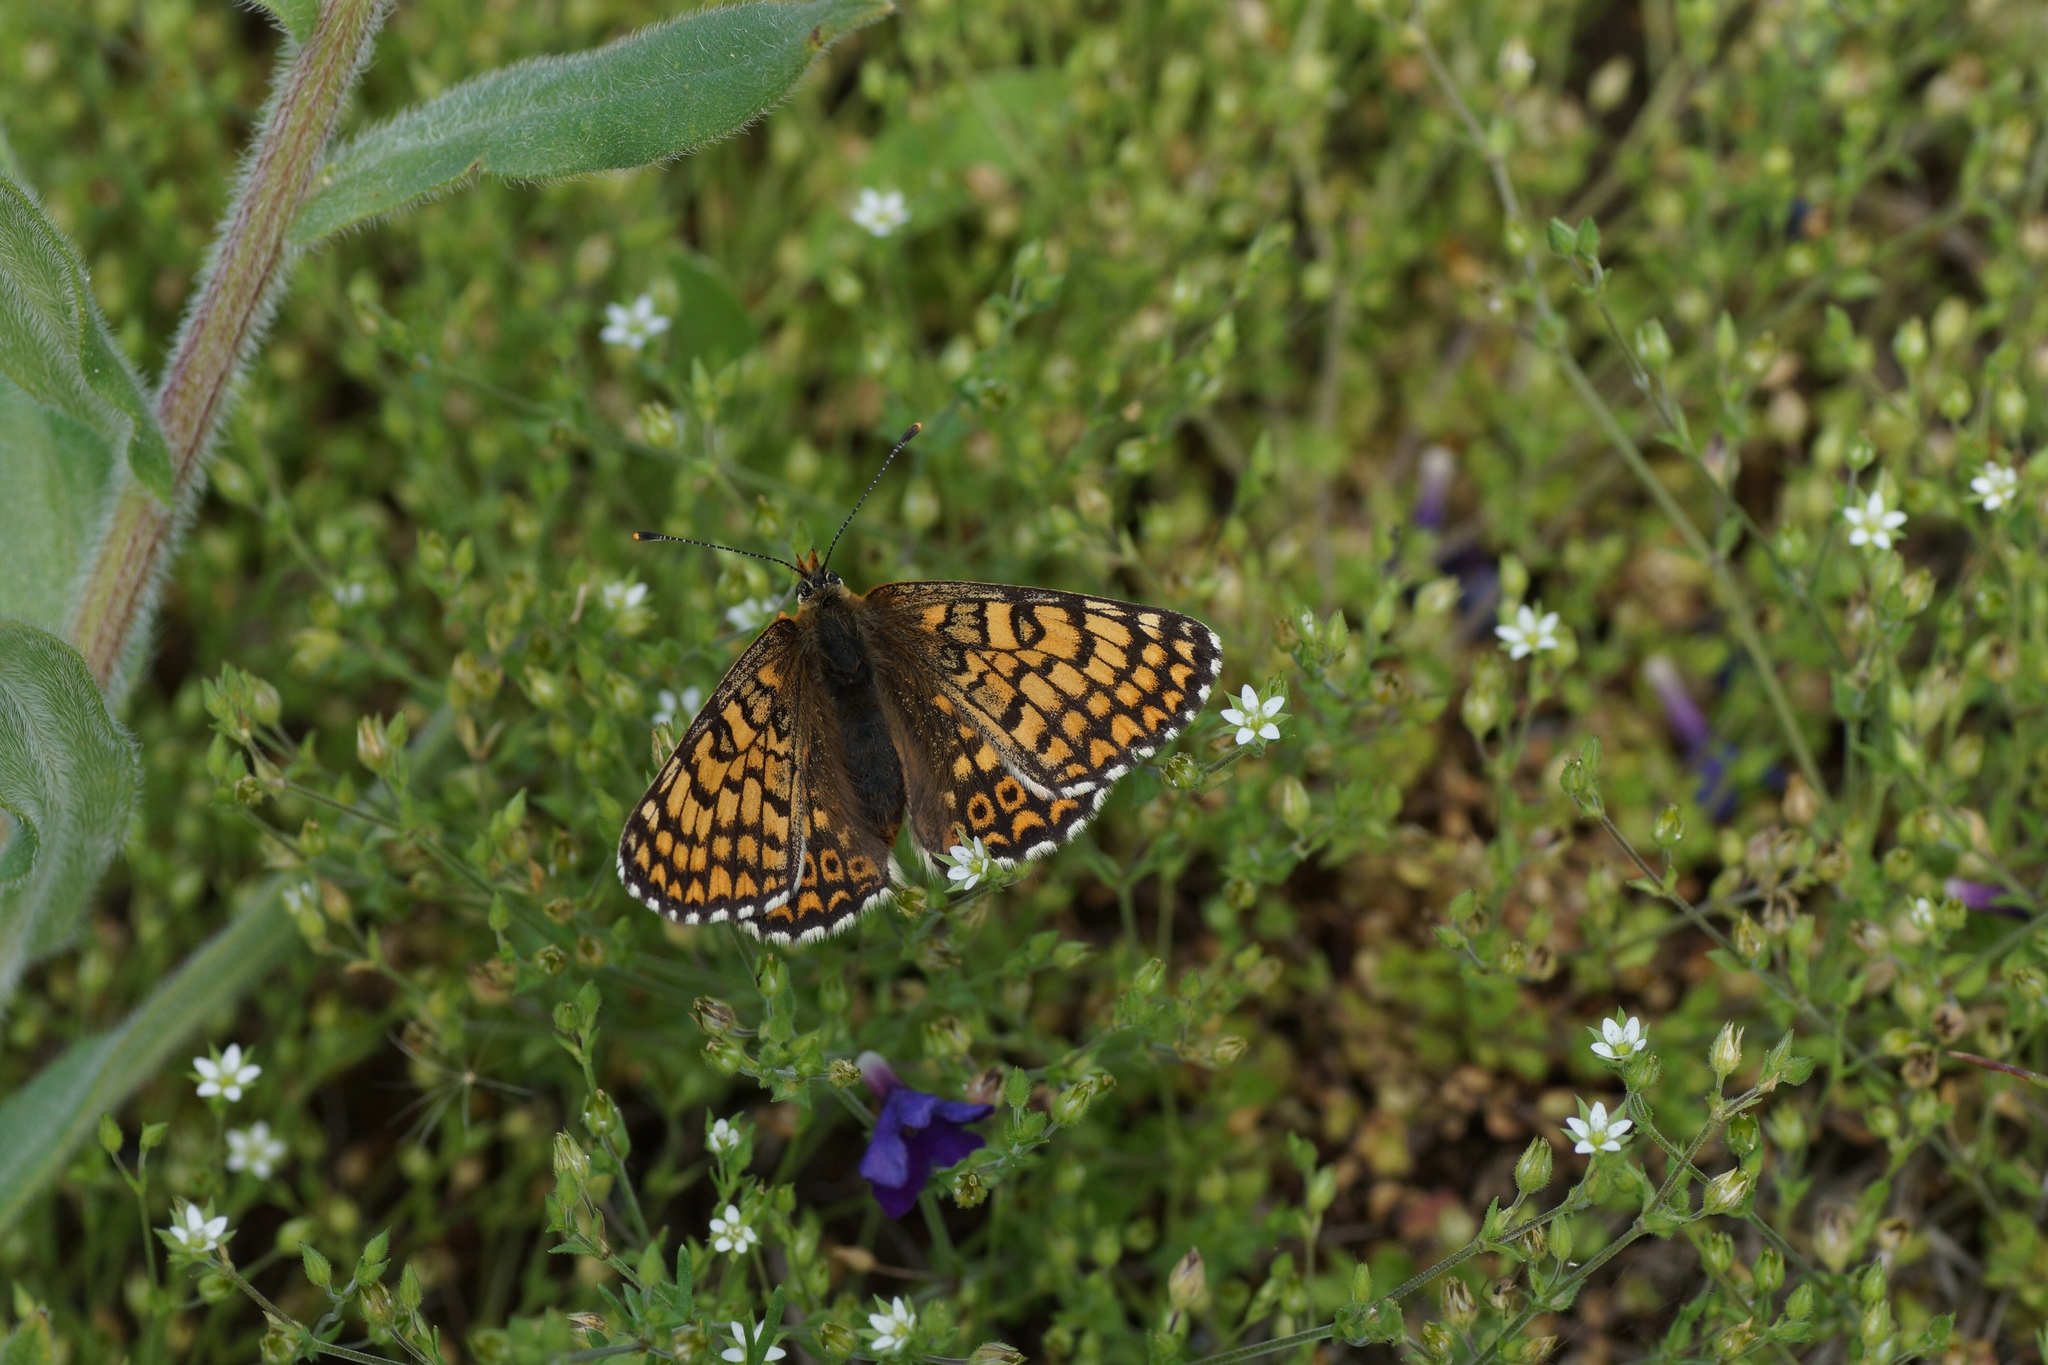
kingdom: Animalia
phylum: Arthropoda
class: Insecta
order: Lepidoptera
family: Nymphalidae
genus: Melitaea
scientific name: Melitaea cinxia
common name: Glanville fritillary
